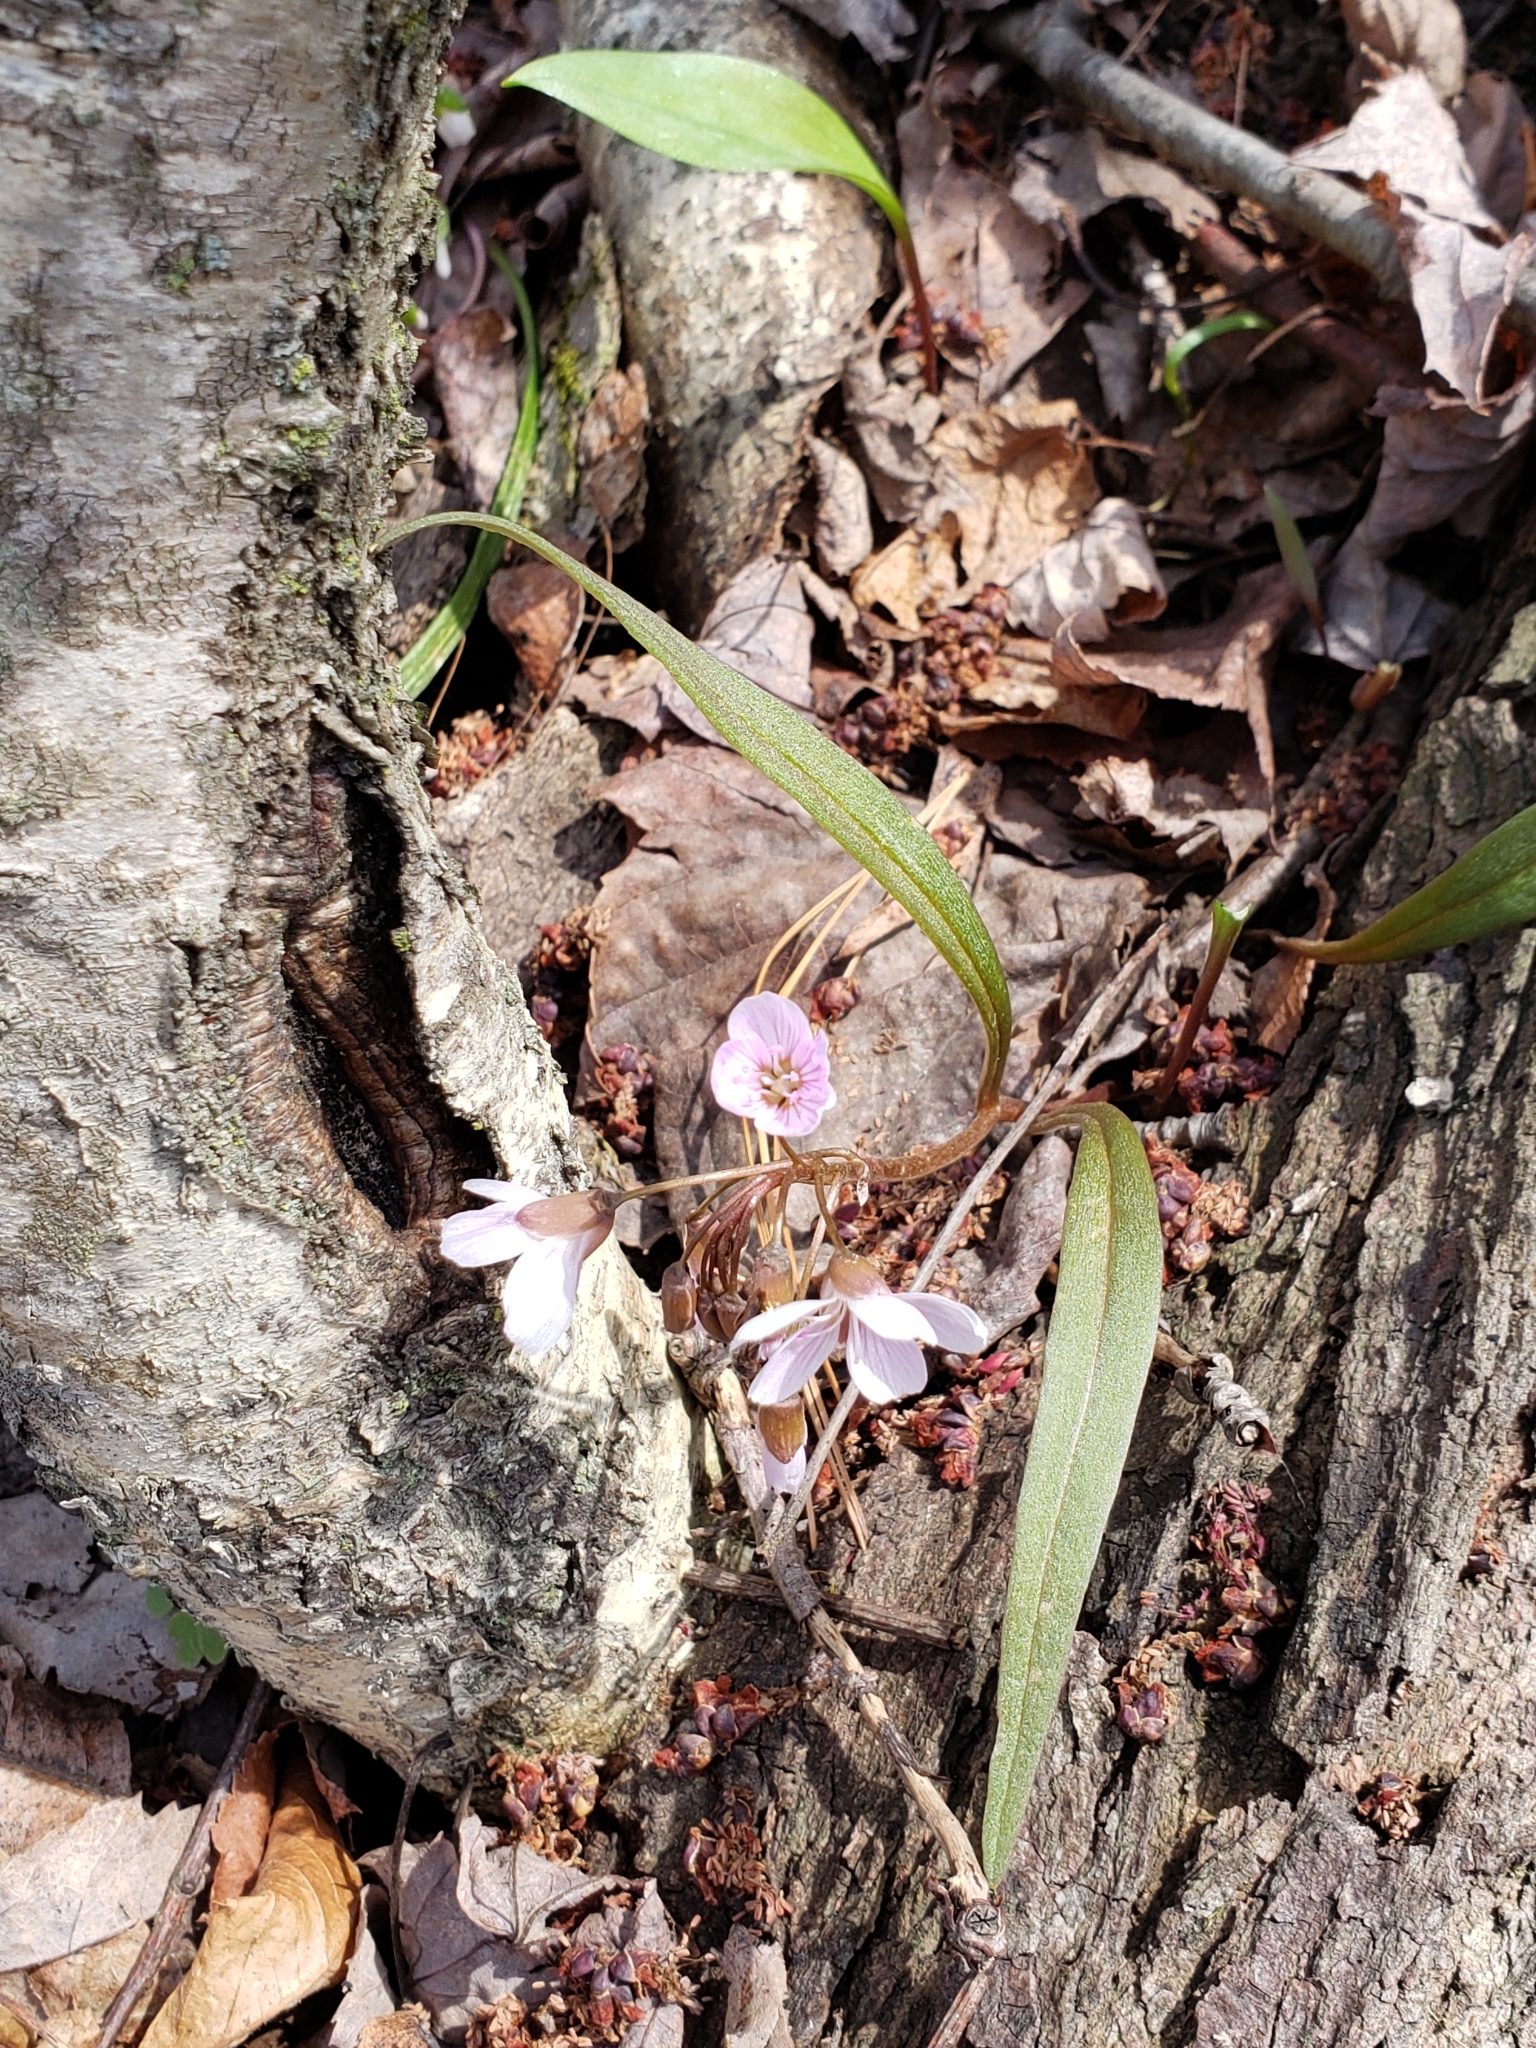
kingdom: Plantae
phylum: Tracheophyta
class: Magnoliopsida
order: Caryophyllales
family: Montiaceae
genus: Claytonia
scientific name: Claytonia virginica
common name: Virginia springbeauty
